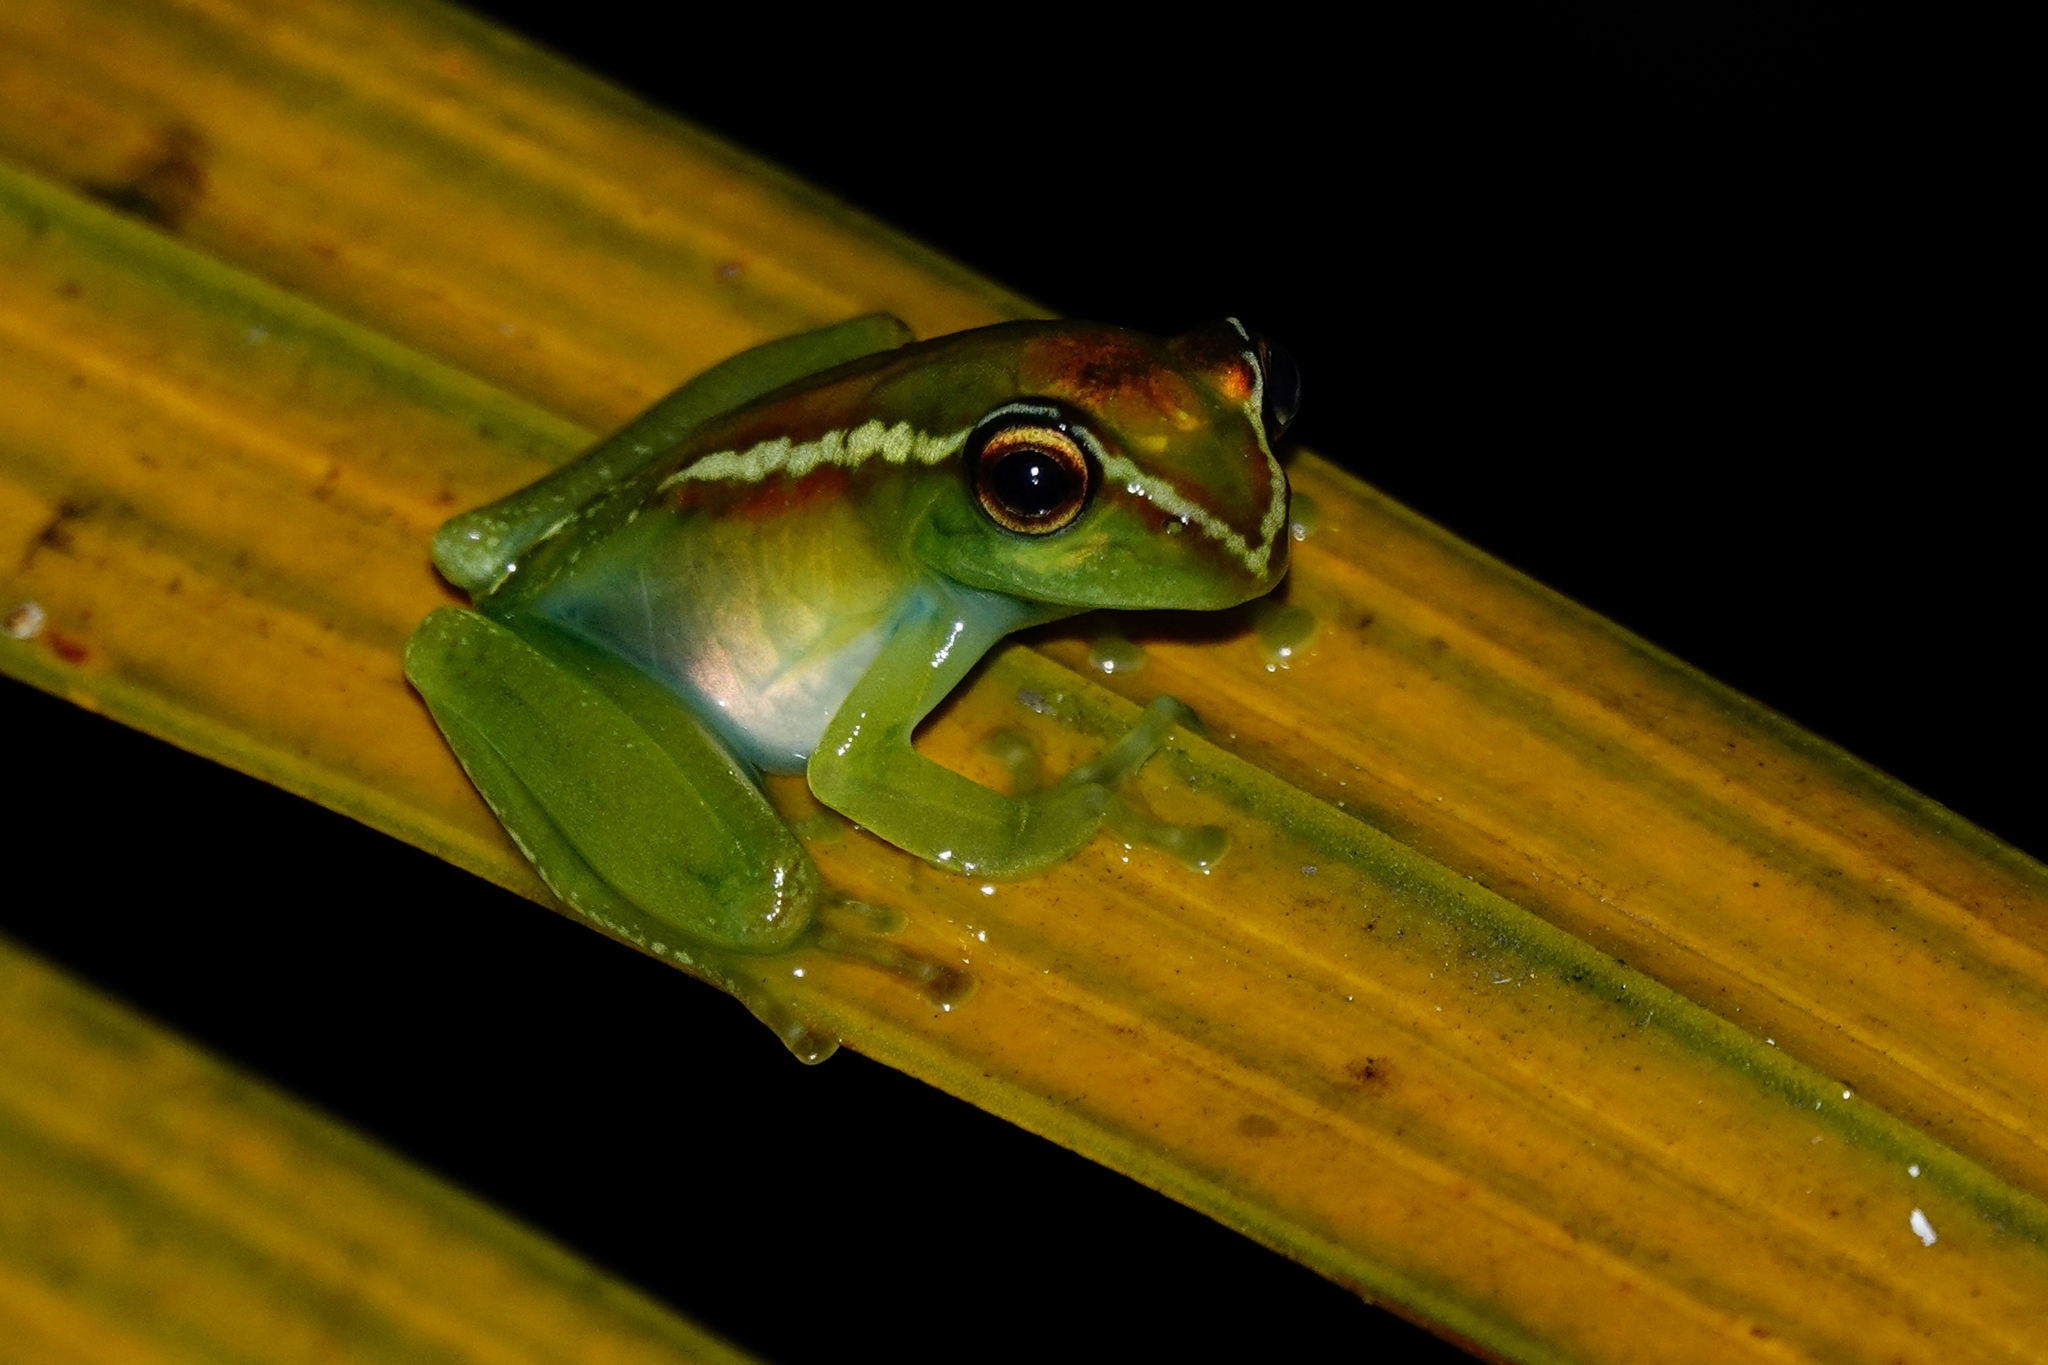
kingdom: Animalia
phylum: Chordata
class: Amphibia
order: Anura
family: Mantellidae
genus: Boophis
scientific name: Boophis andohahela
